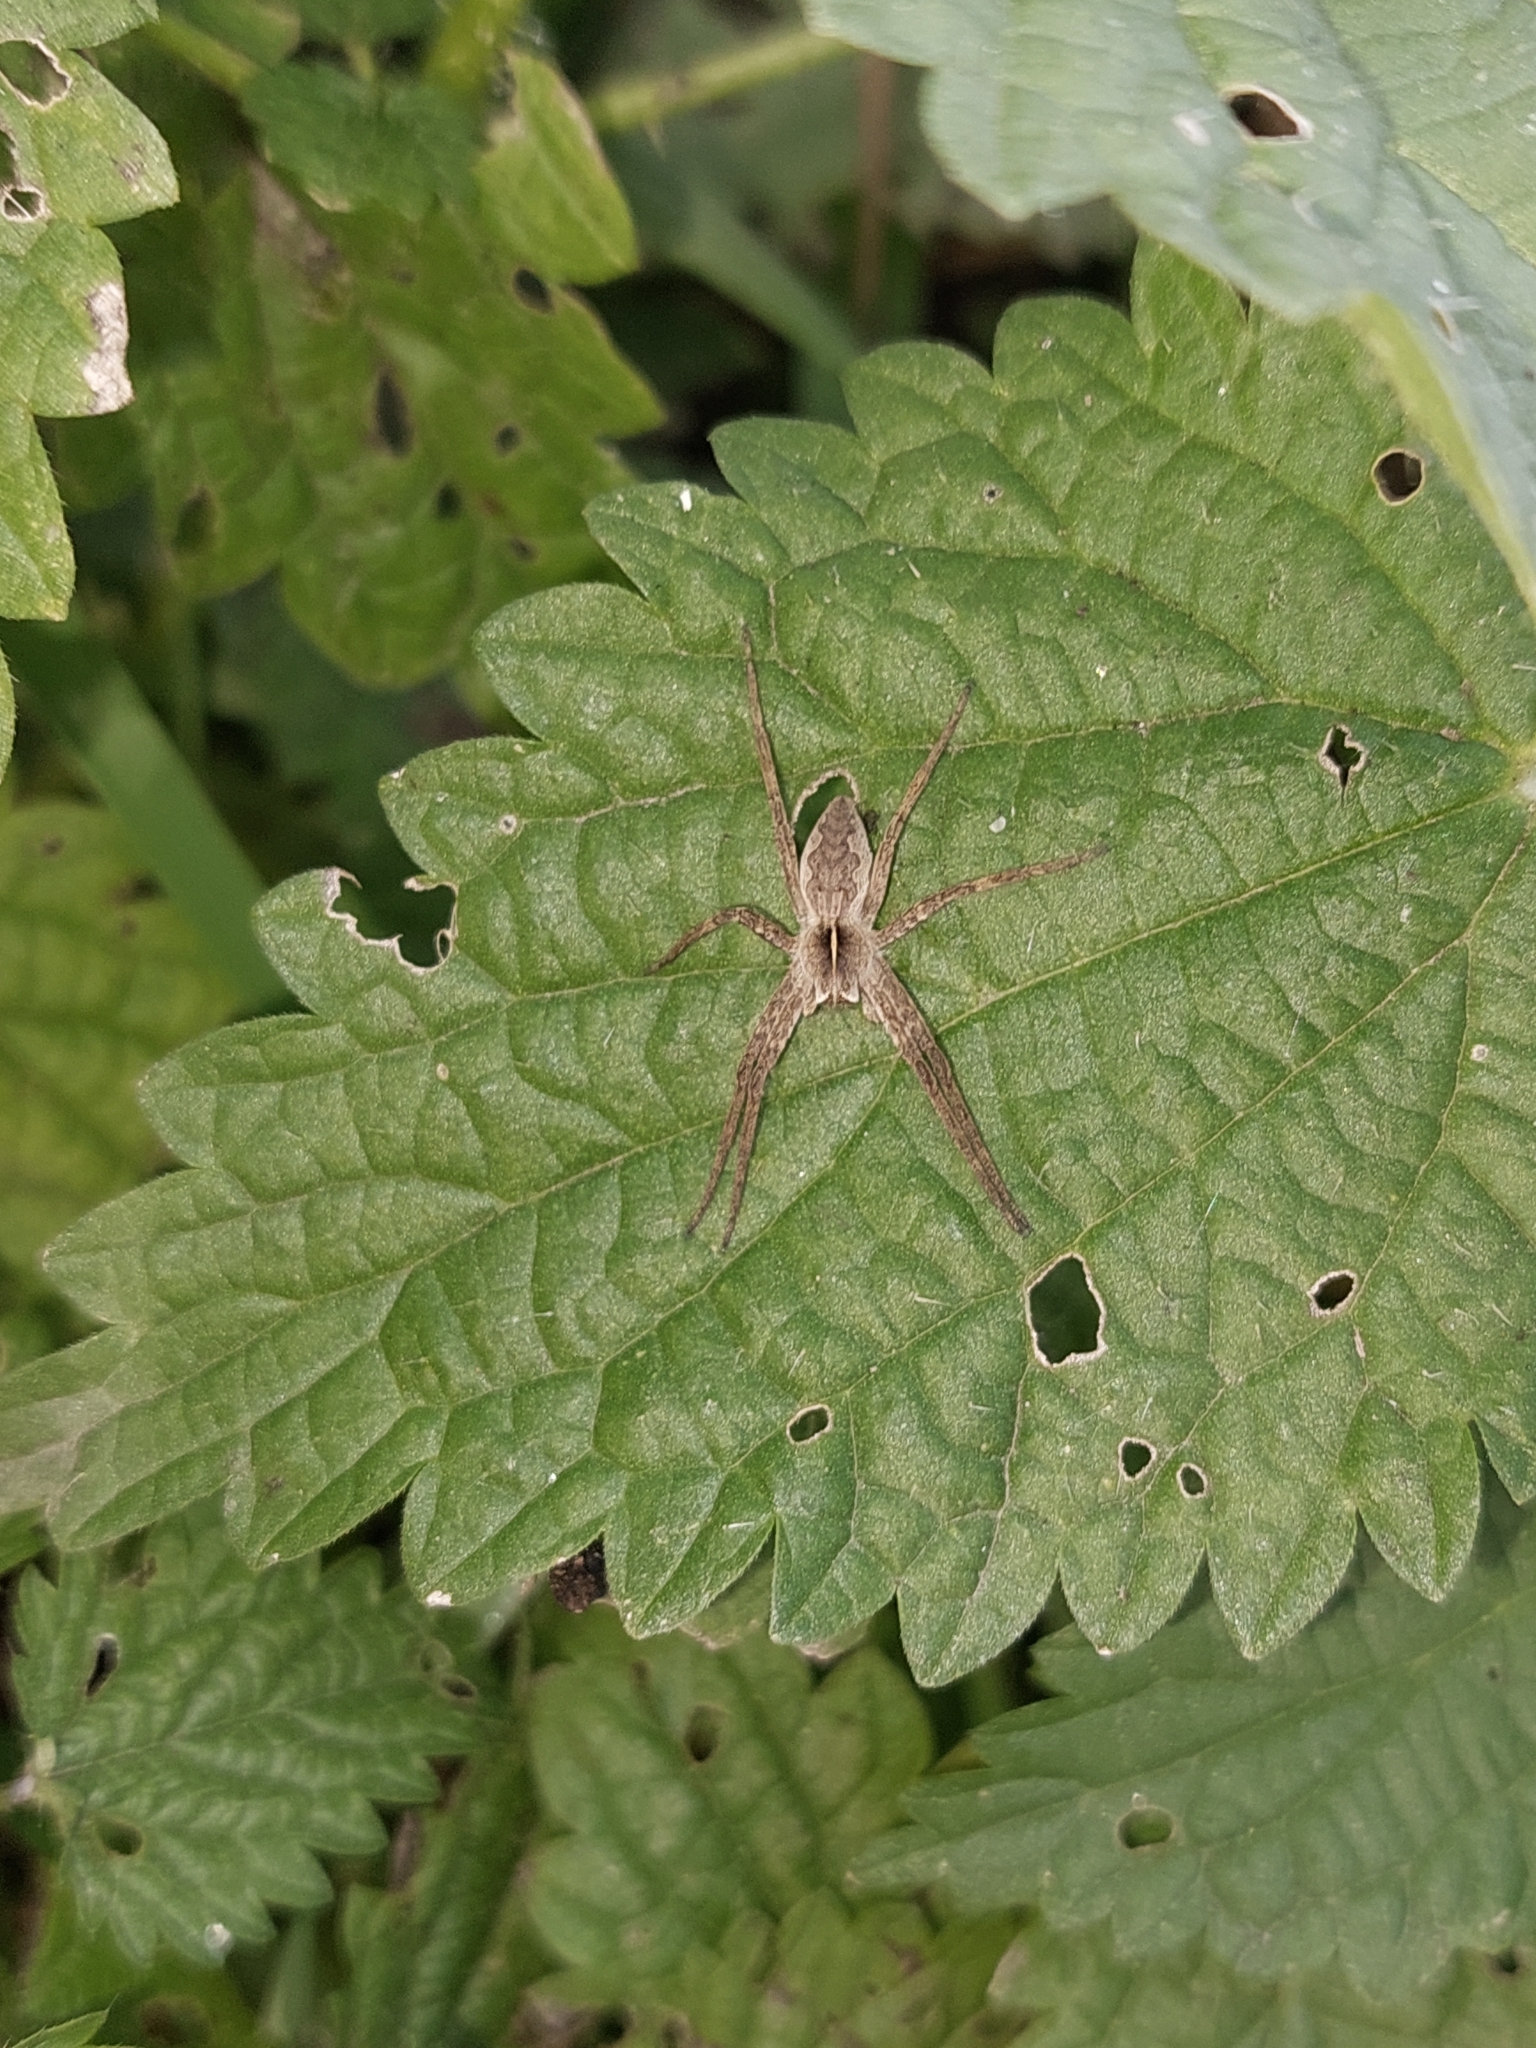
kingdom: Animalia
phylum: Arthropoda
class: Arachnida
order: Araneae
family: Pisauridae
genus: Pisaura
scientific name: Pisaura
